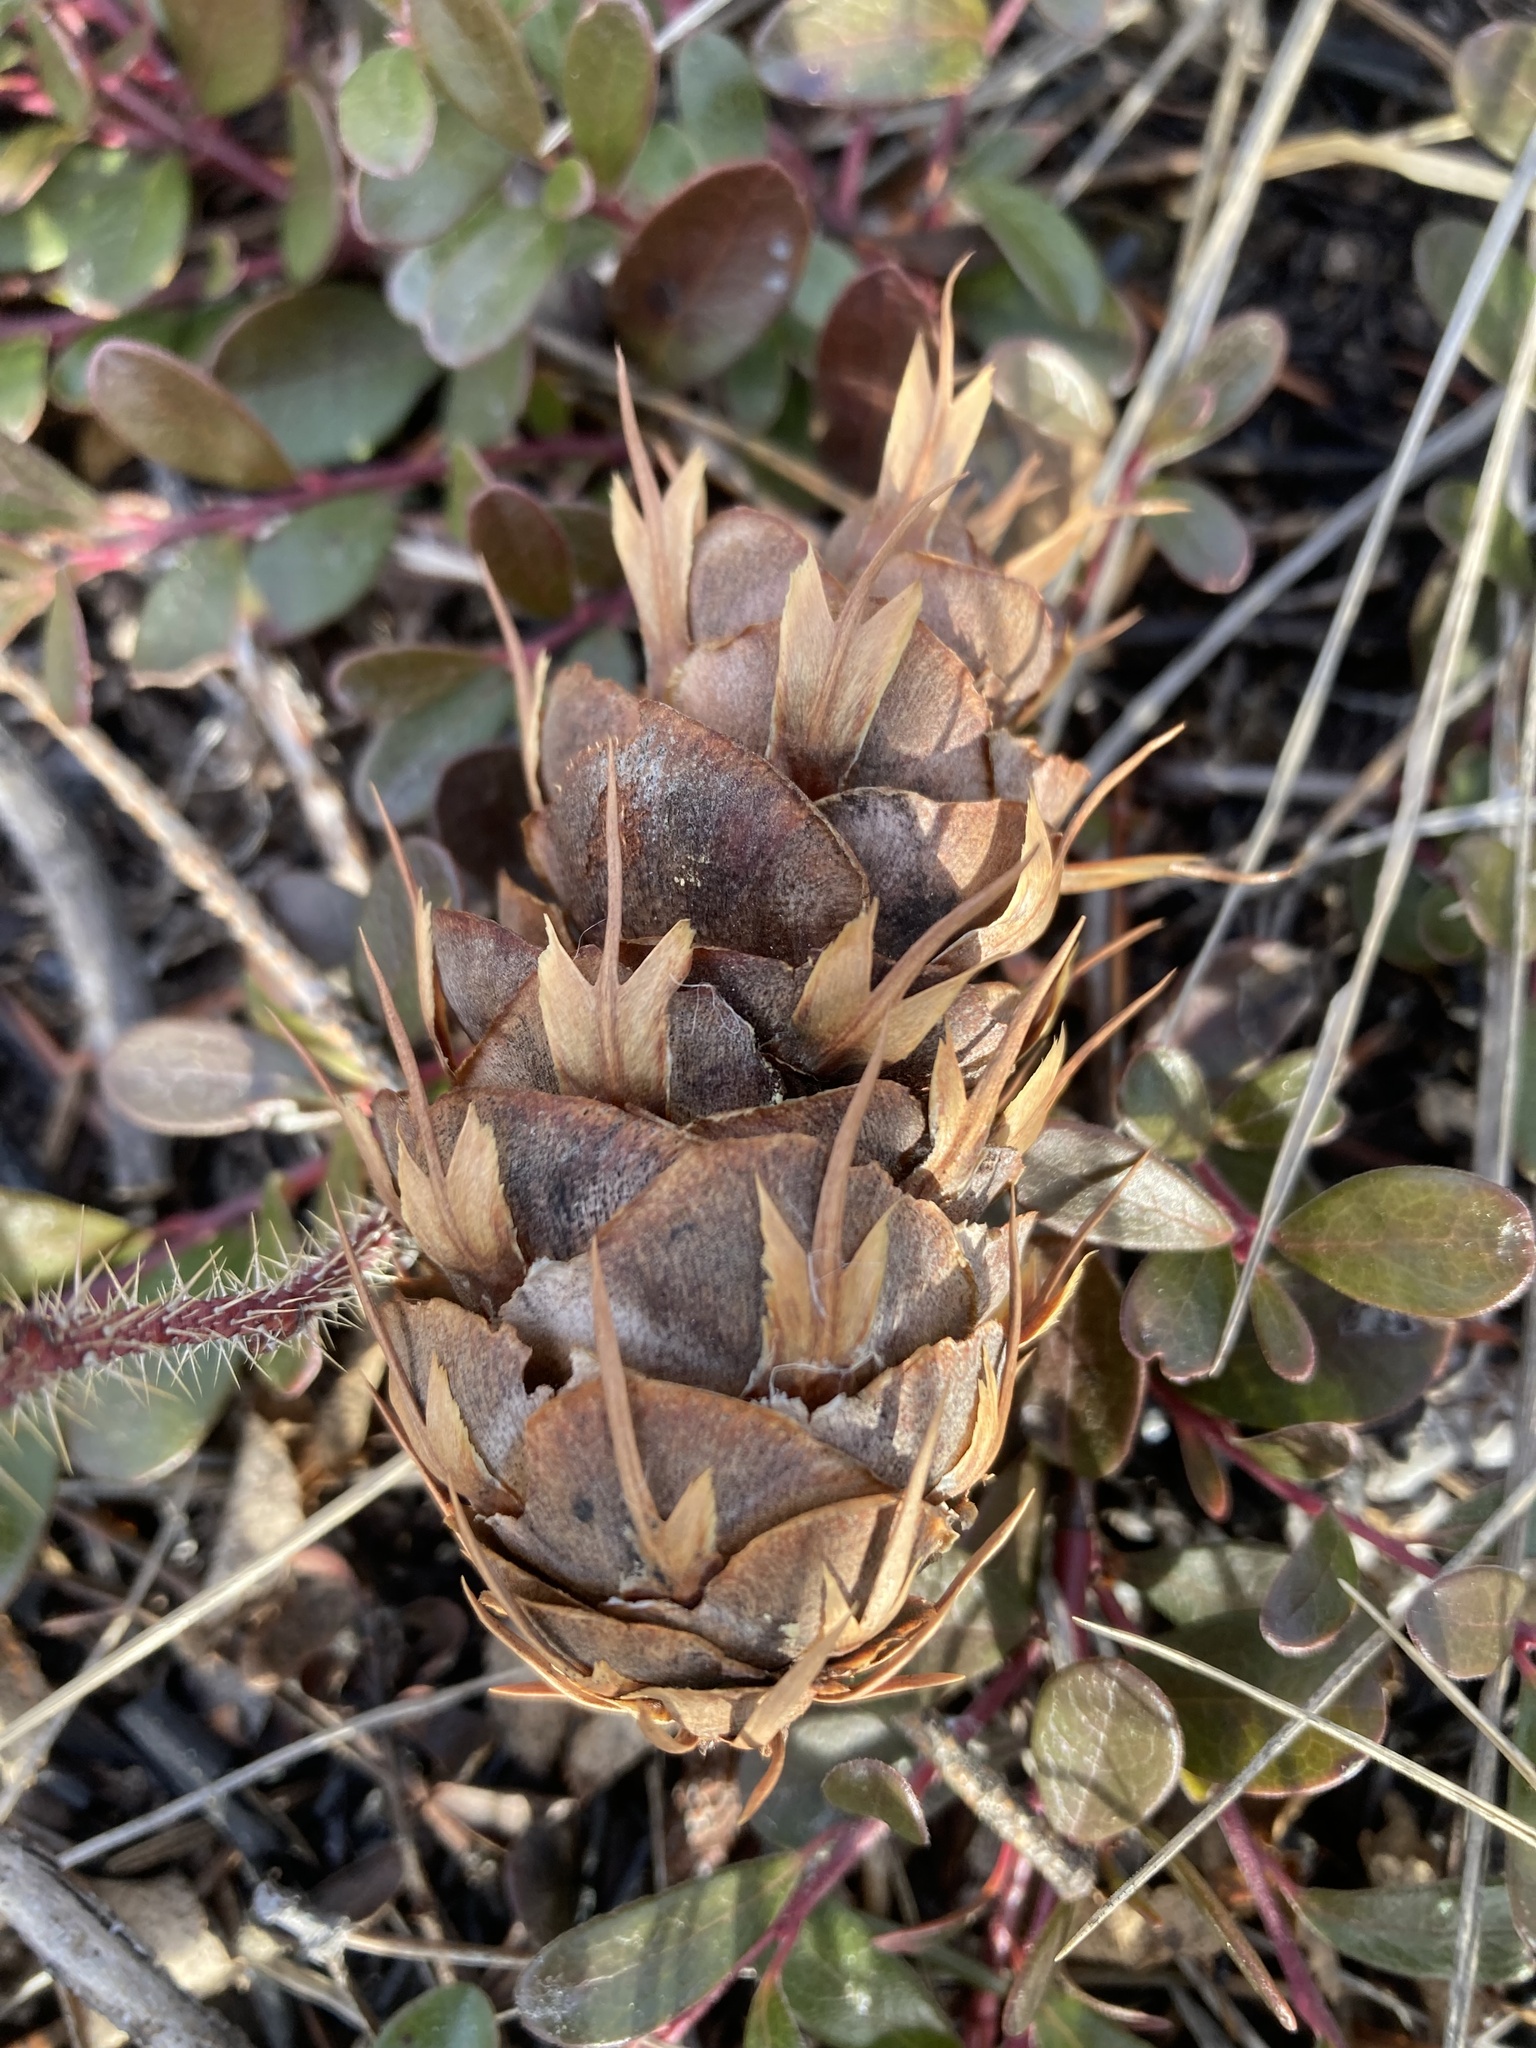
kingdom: Plantae
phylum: Tracheophyta
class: Pinopsida
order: Pinales
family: Pinaceae
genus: Pseudotsuga
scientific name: Pseudotsuga menziesii
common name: Douglas fir
